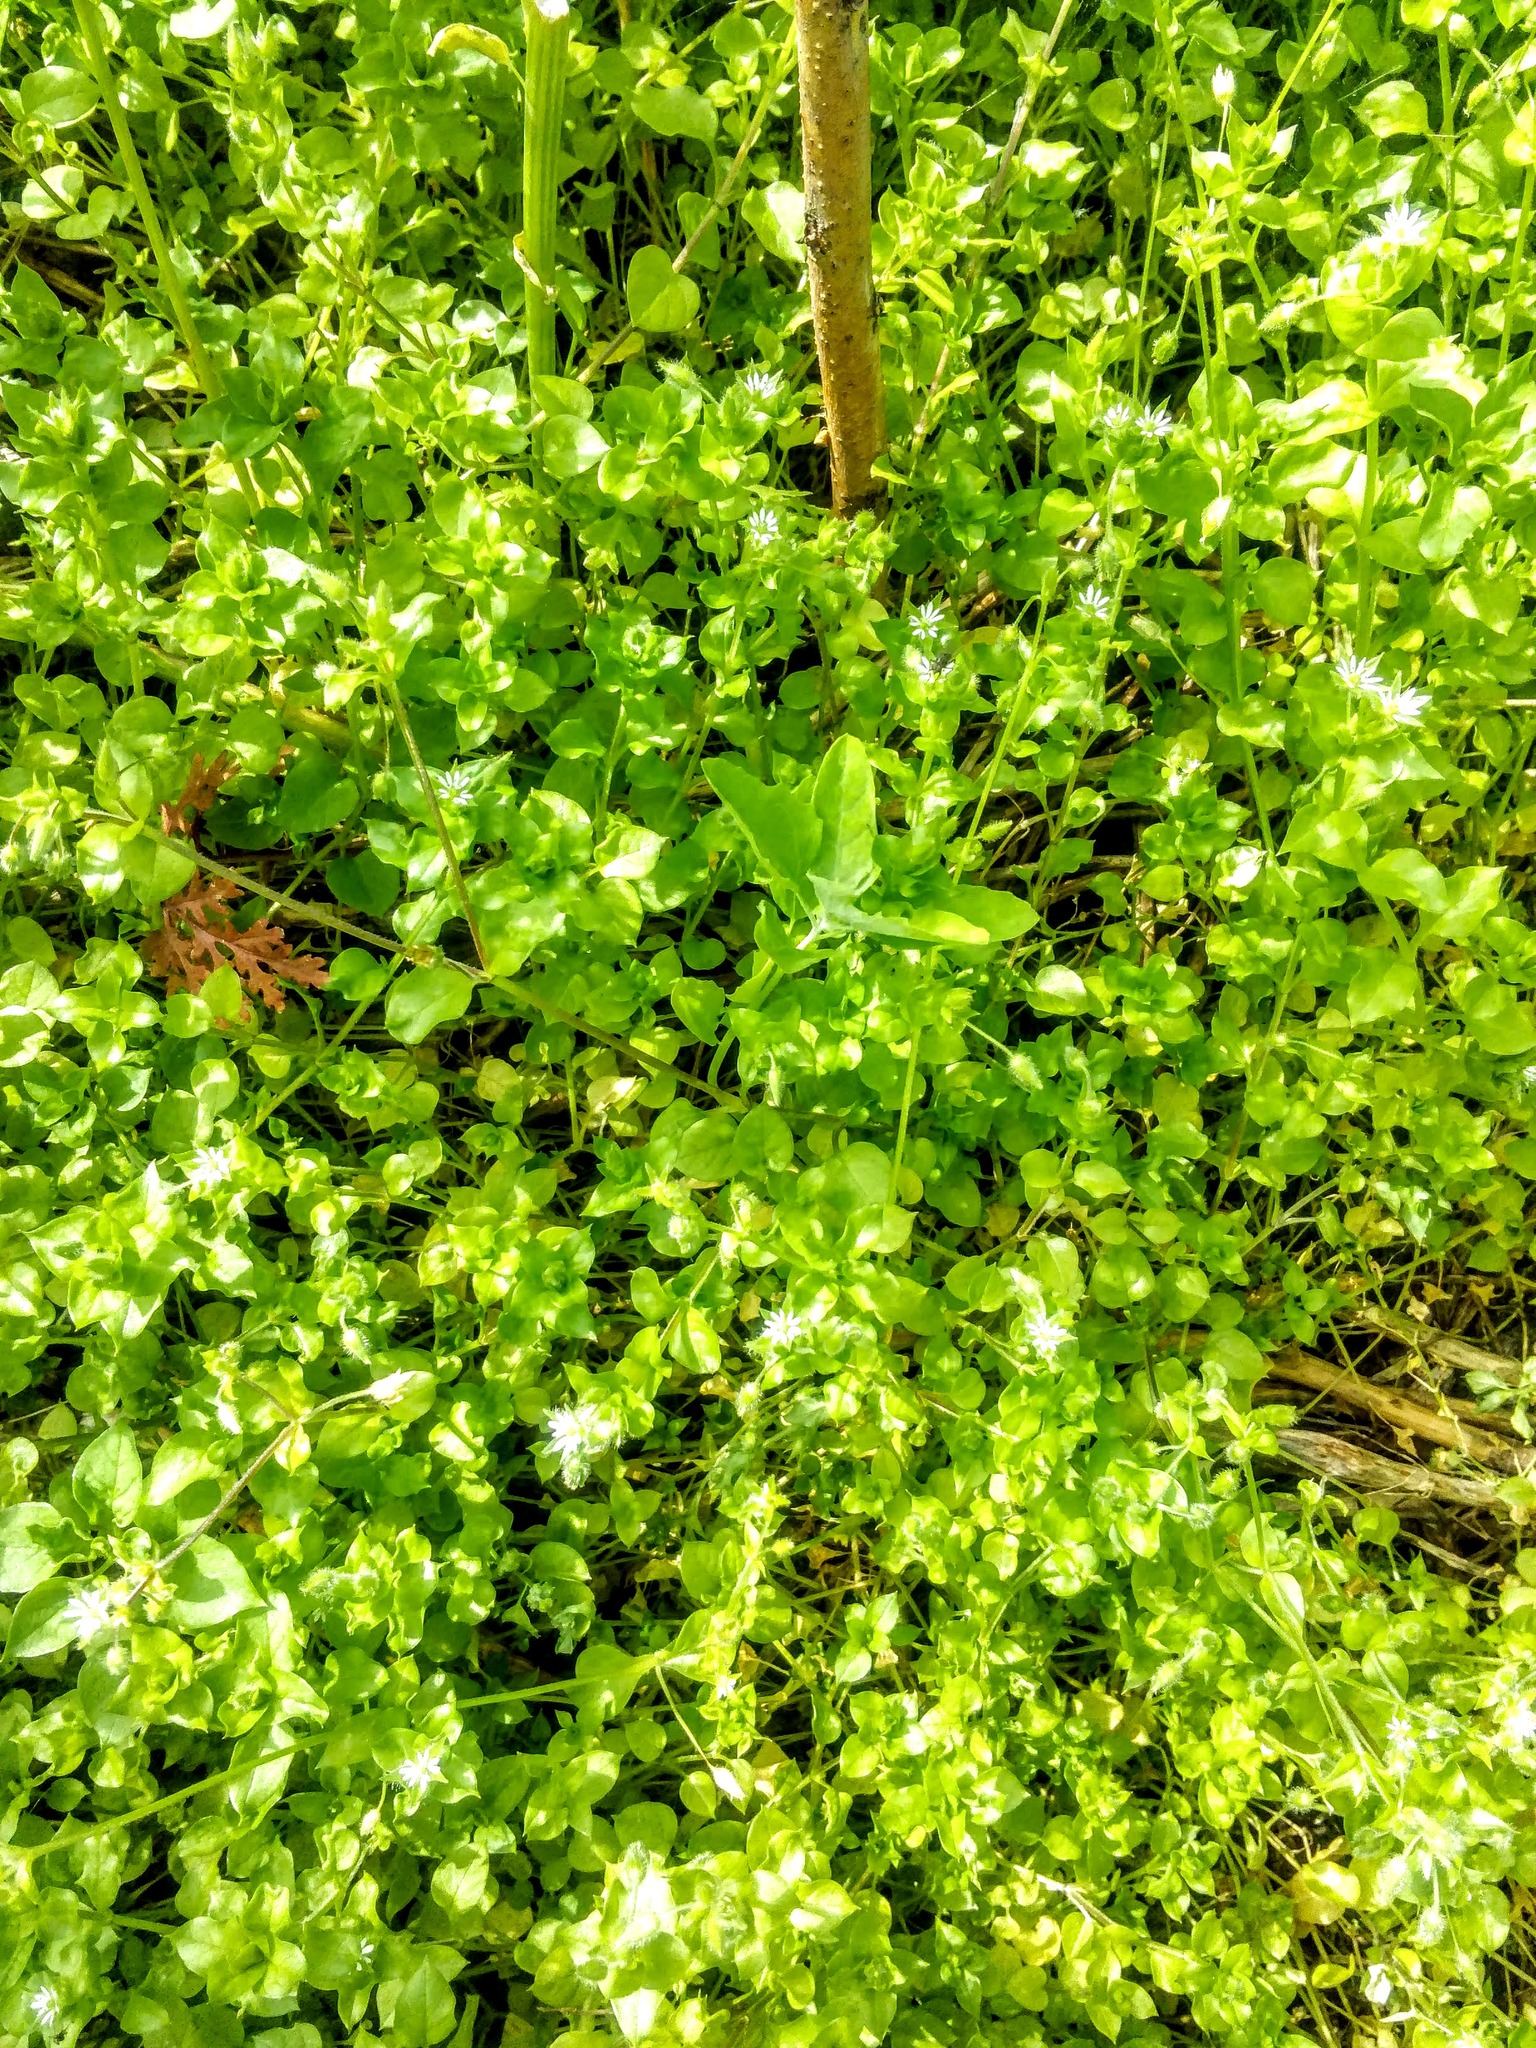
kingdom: Plantae
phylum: Tracheophyta
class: Magnoliopsida
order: Caryophyllales
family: Caryophyllaceae
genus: Stellaria
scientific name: Stellaria media
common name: Common chickweed
